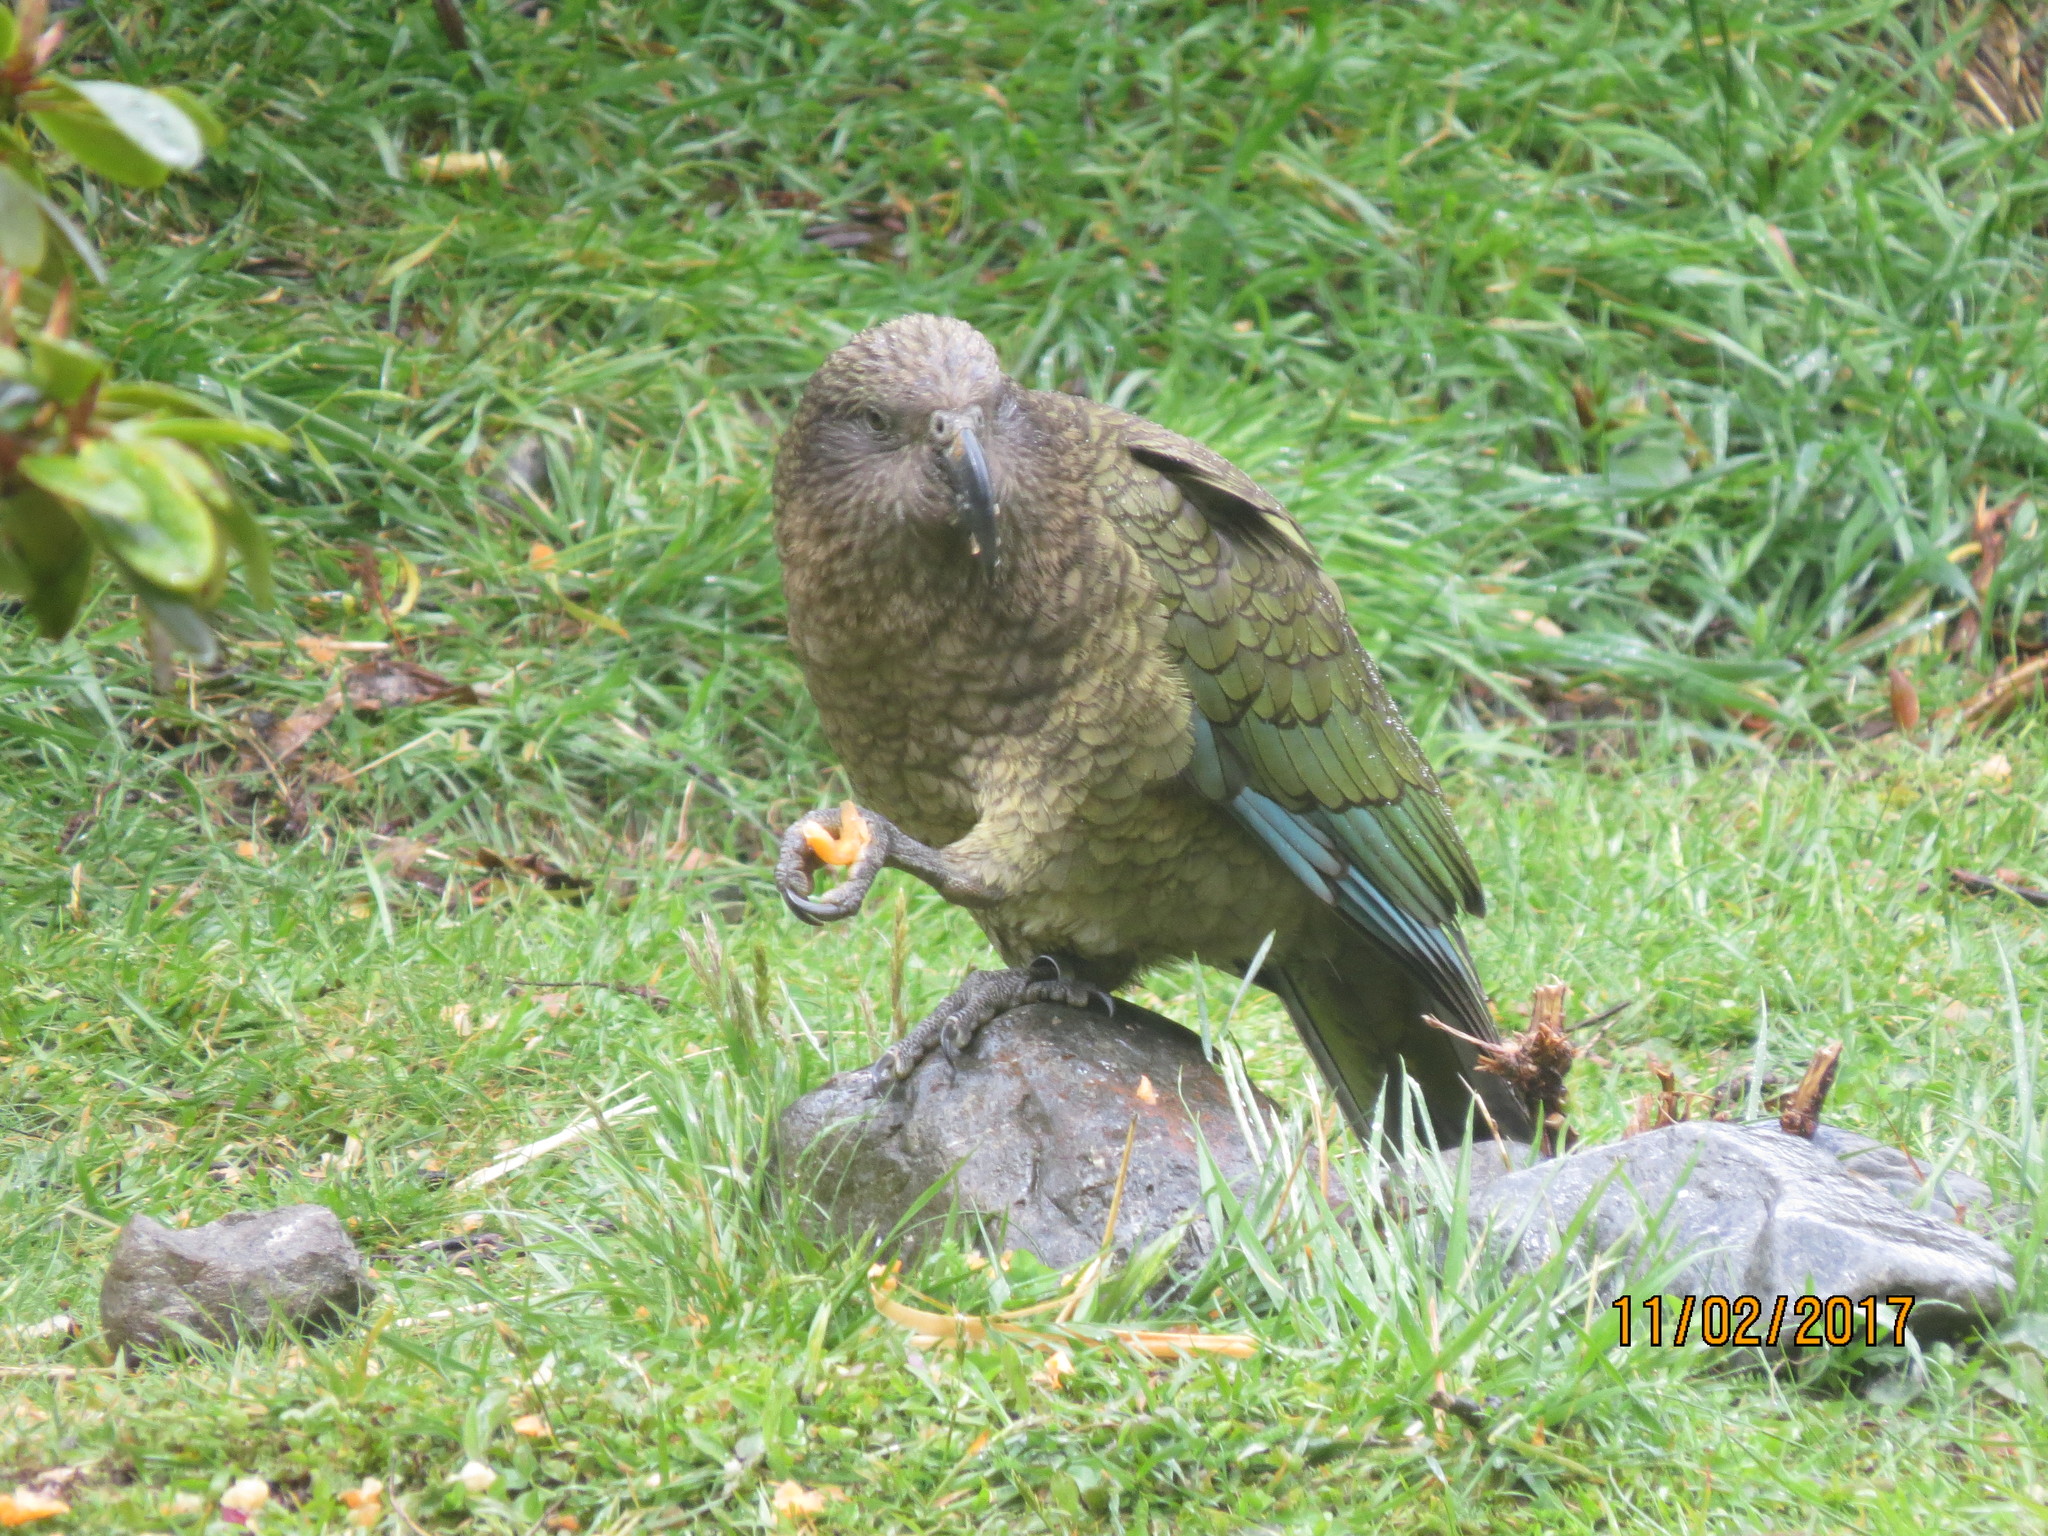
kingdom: Animalia
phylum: Chordata
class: Aves
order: Psittaciformes
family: Psittacidae
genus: Nestor
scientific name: Nestor notabilis
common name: Kea
